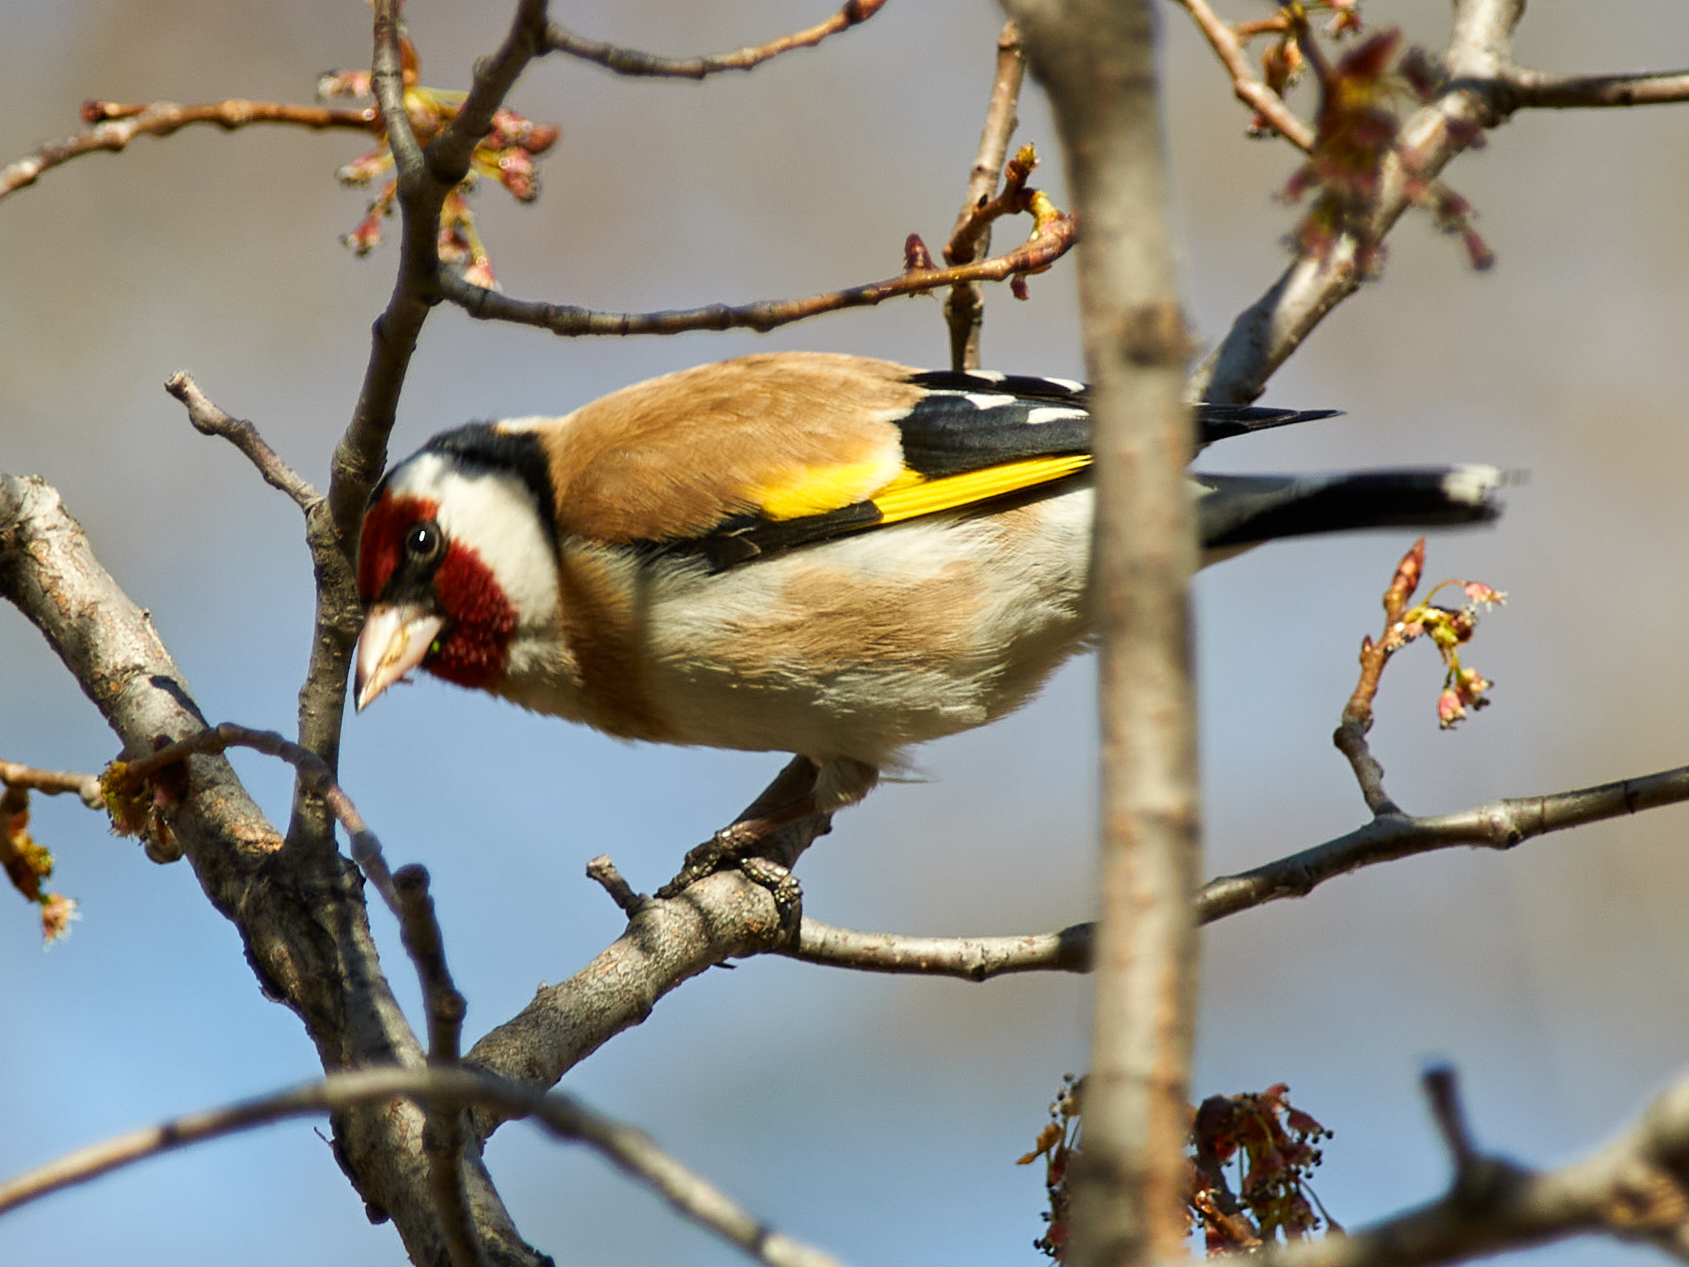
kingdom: Animalia
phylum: Chordata
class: Aves
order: Passeriformes
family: Fringillidae
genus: Carduelis
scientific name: Carduelis carduelis
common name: European goldfinch
